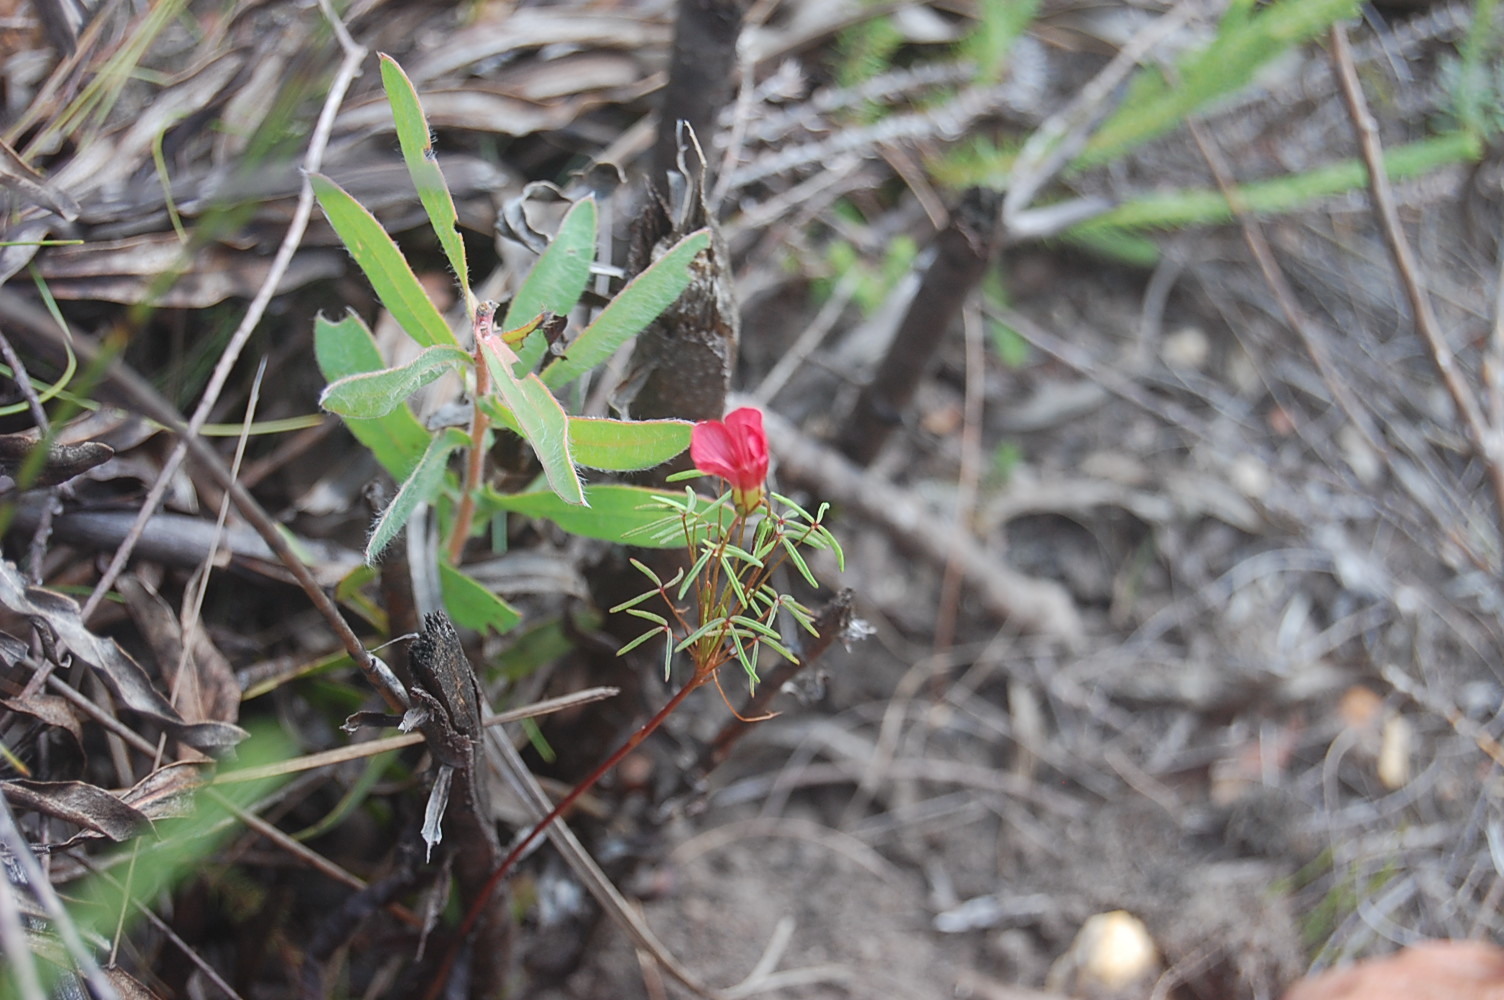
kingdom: Plantae
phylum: Tracheophyta
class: Magnoliopsida
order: Oxalidales
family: Oxalidaceae
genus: Oxalis
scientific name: Oxalis pendulifolia
